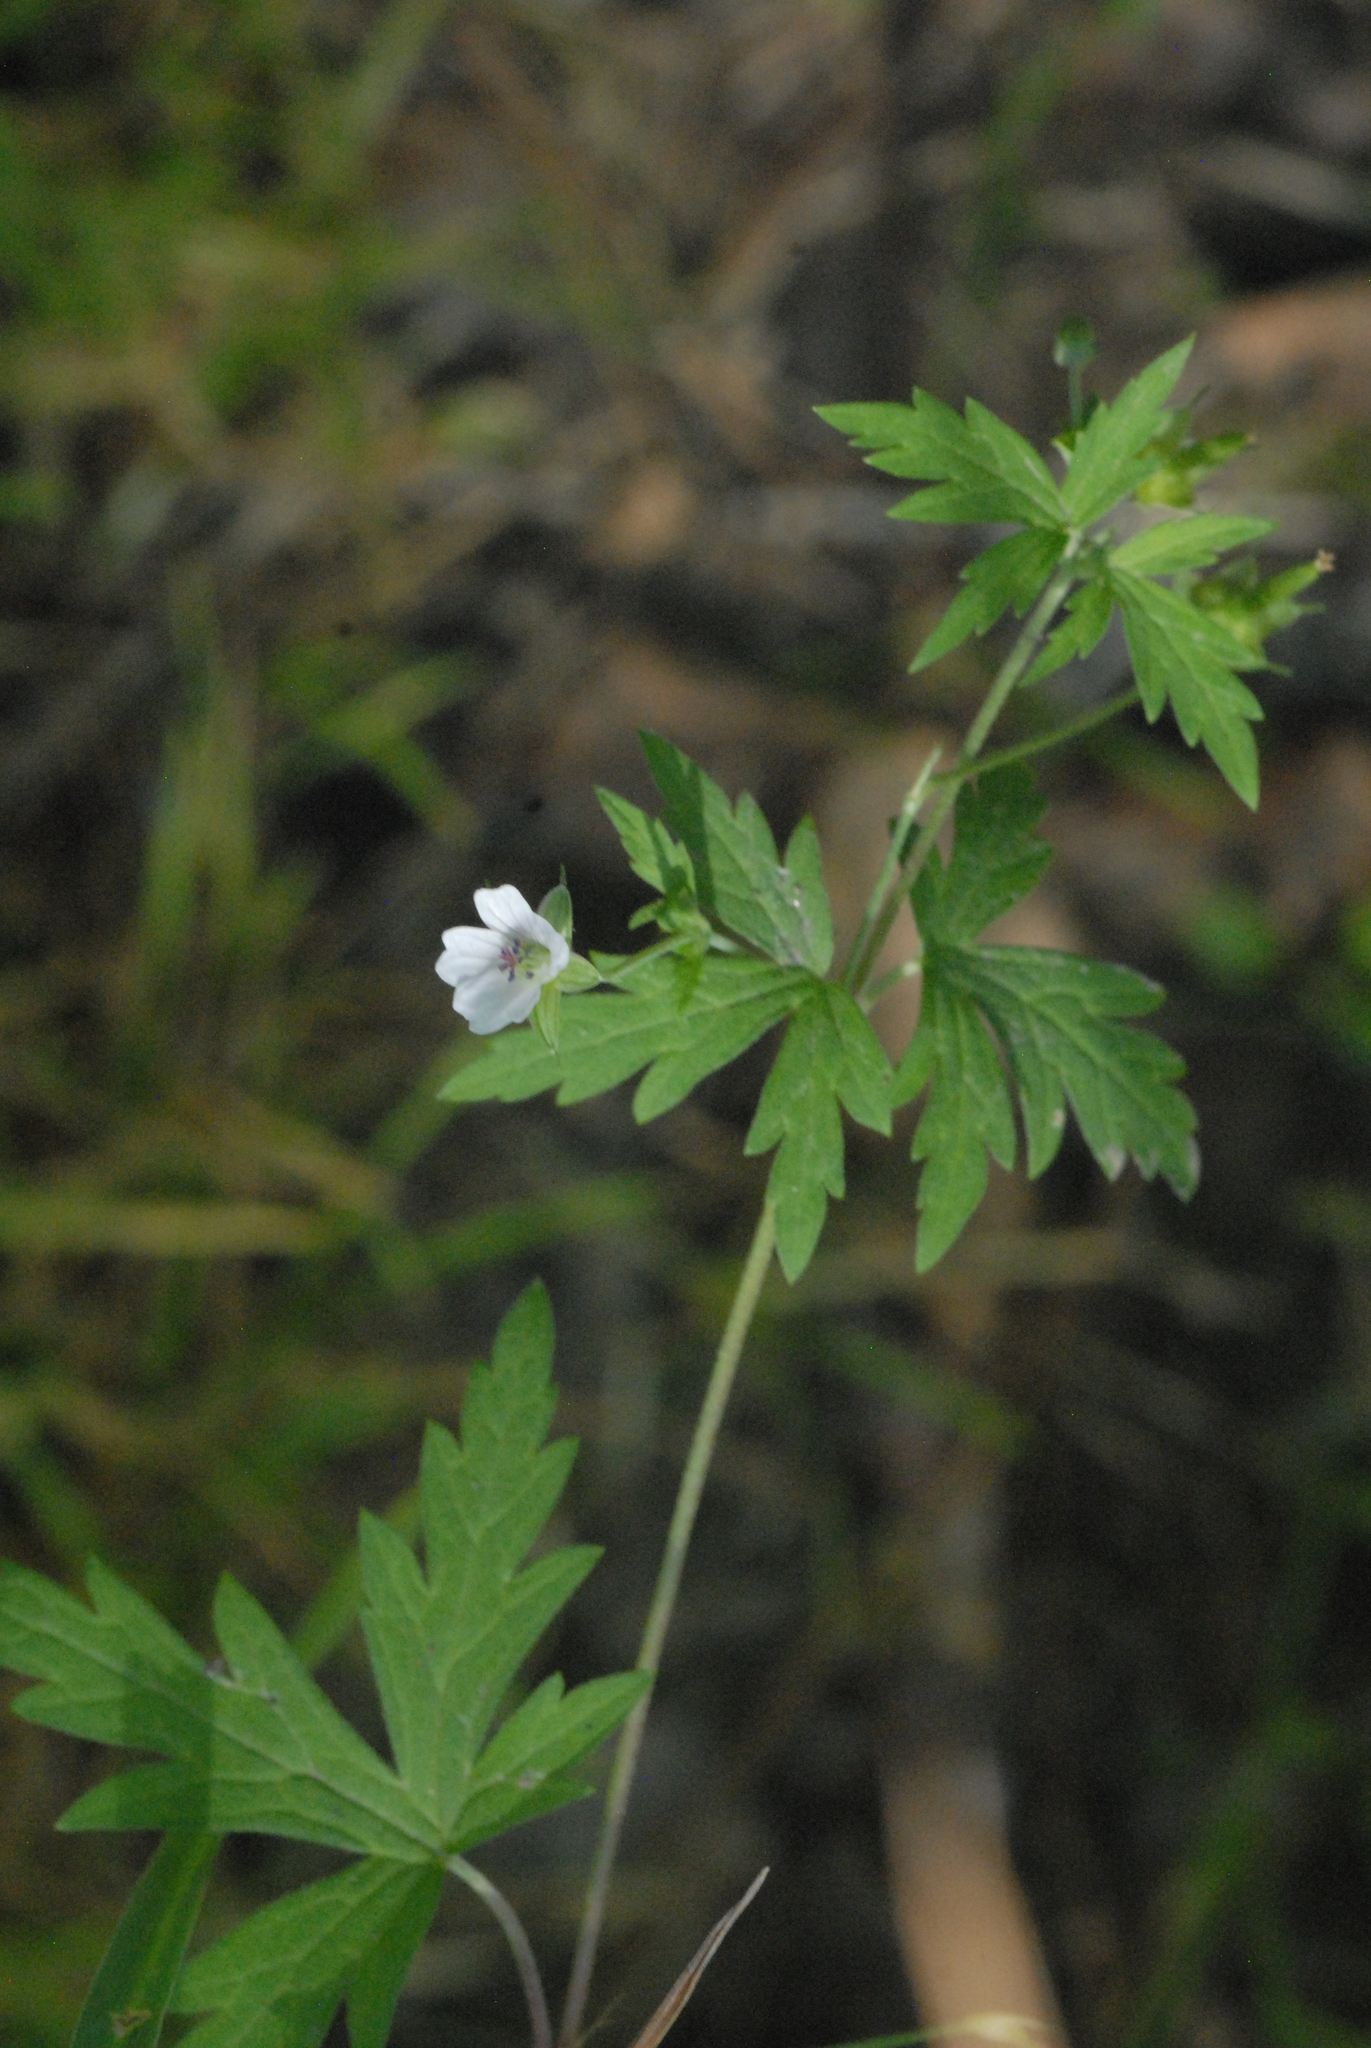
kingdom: Plantae
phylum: Tracheophyta
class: Magnoliopsida
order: Geraniales
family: Geraniaceae
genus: Geranium
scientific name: Geranium sibiricum
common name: Siberian crane's-bill
